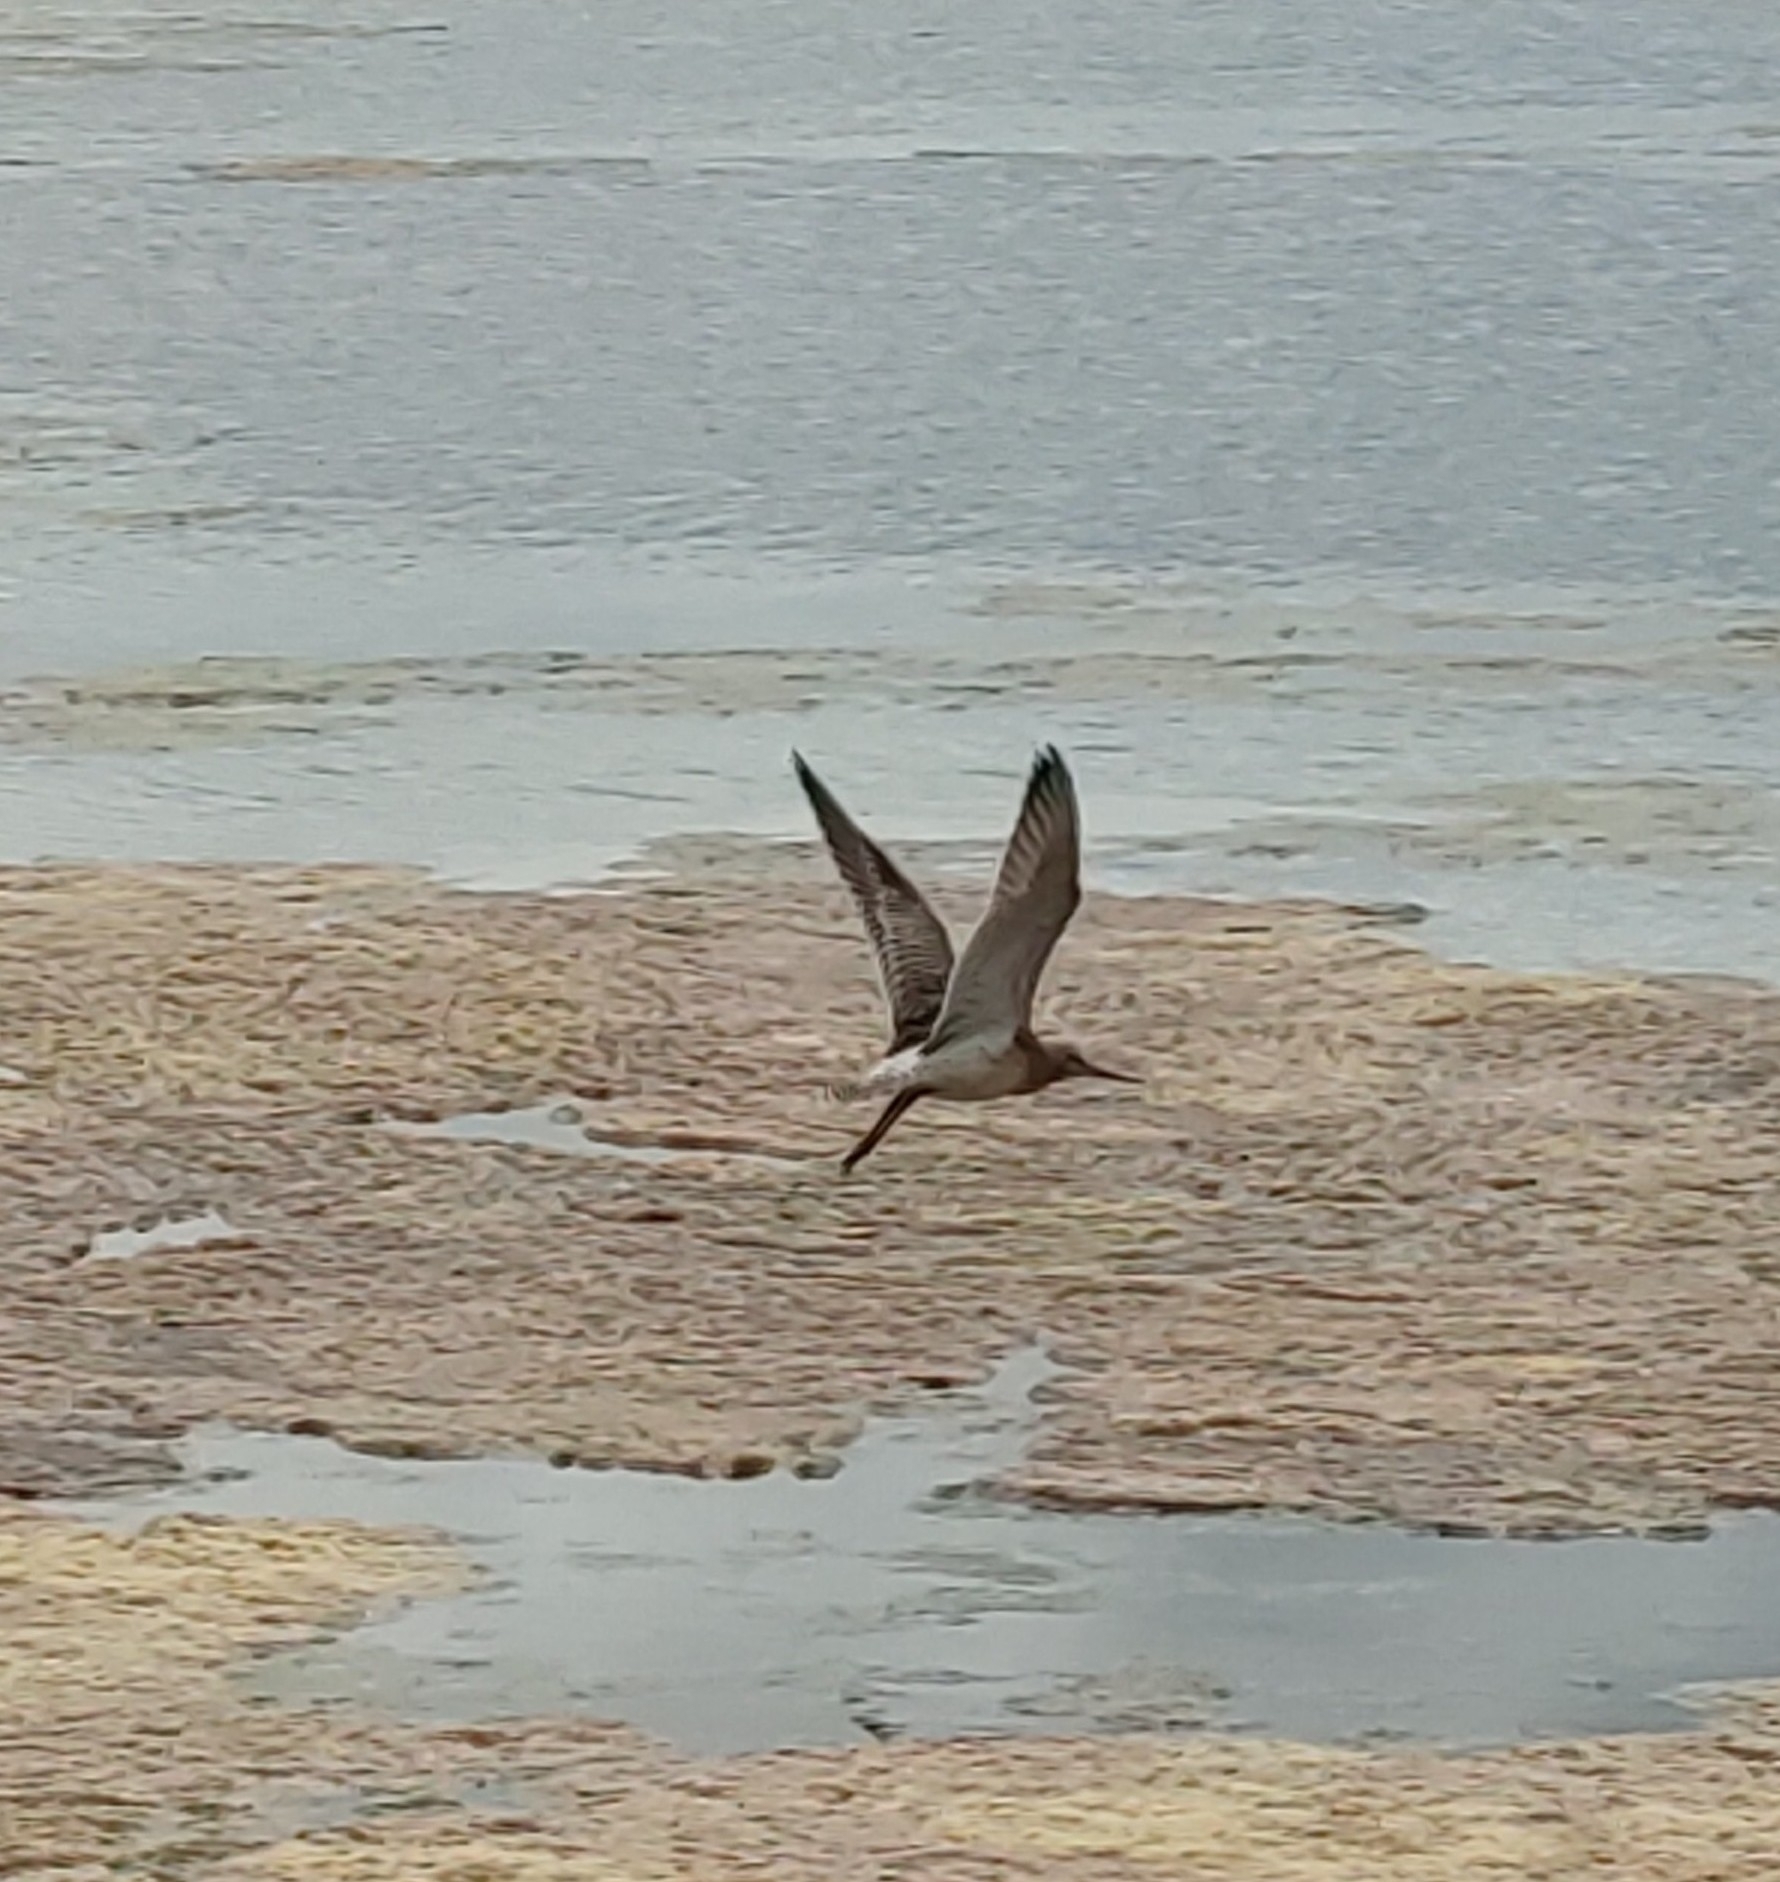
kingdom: Animalia
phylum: Chordata
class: Aves
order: Charadriiformes
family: Scolopacidae
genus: Limosa
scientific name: Limosa lapponica
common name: Bar-tailed godwit
